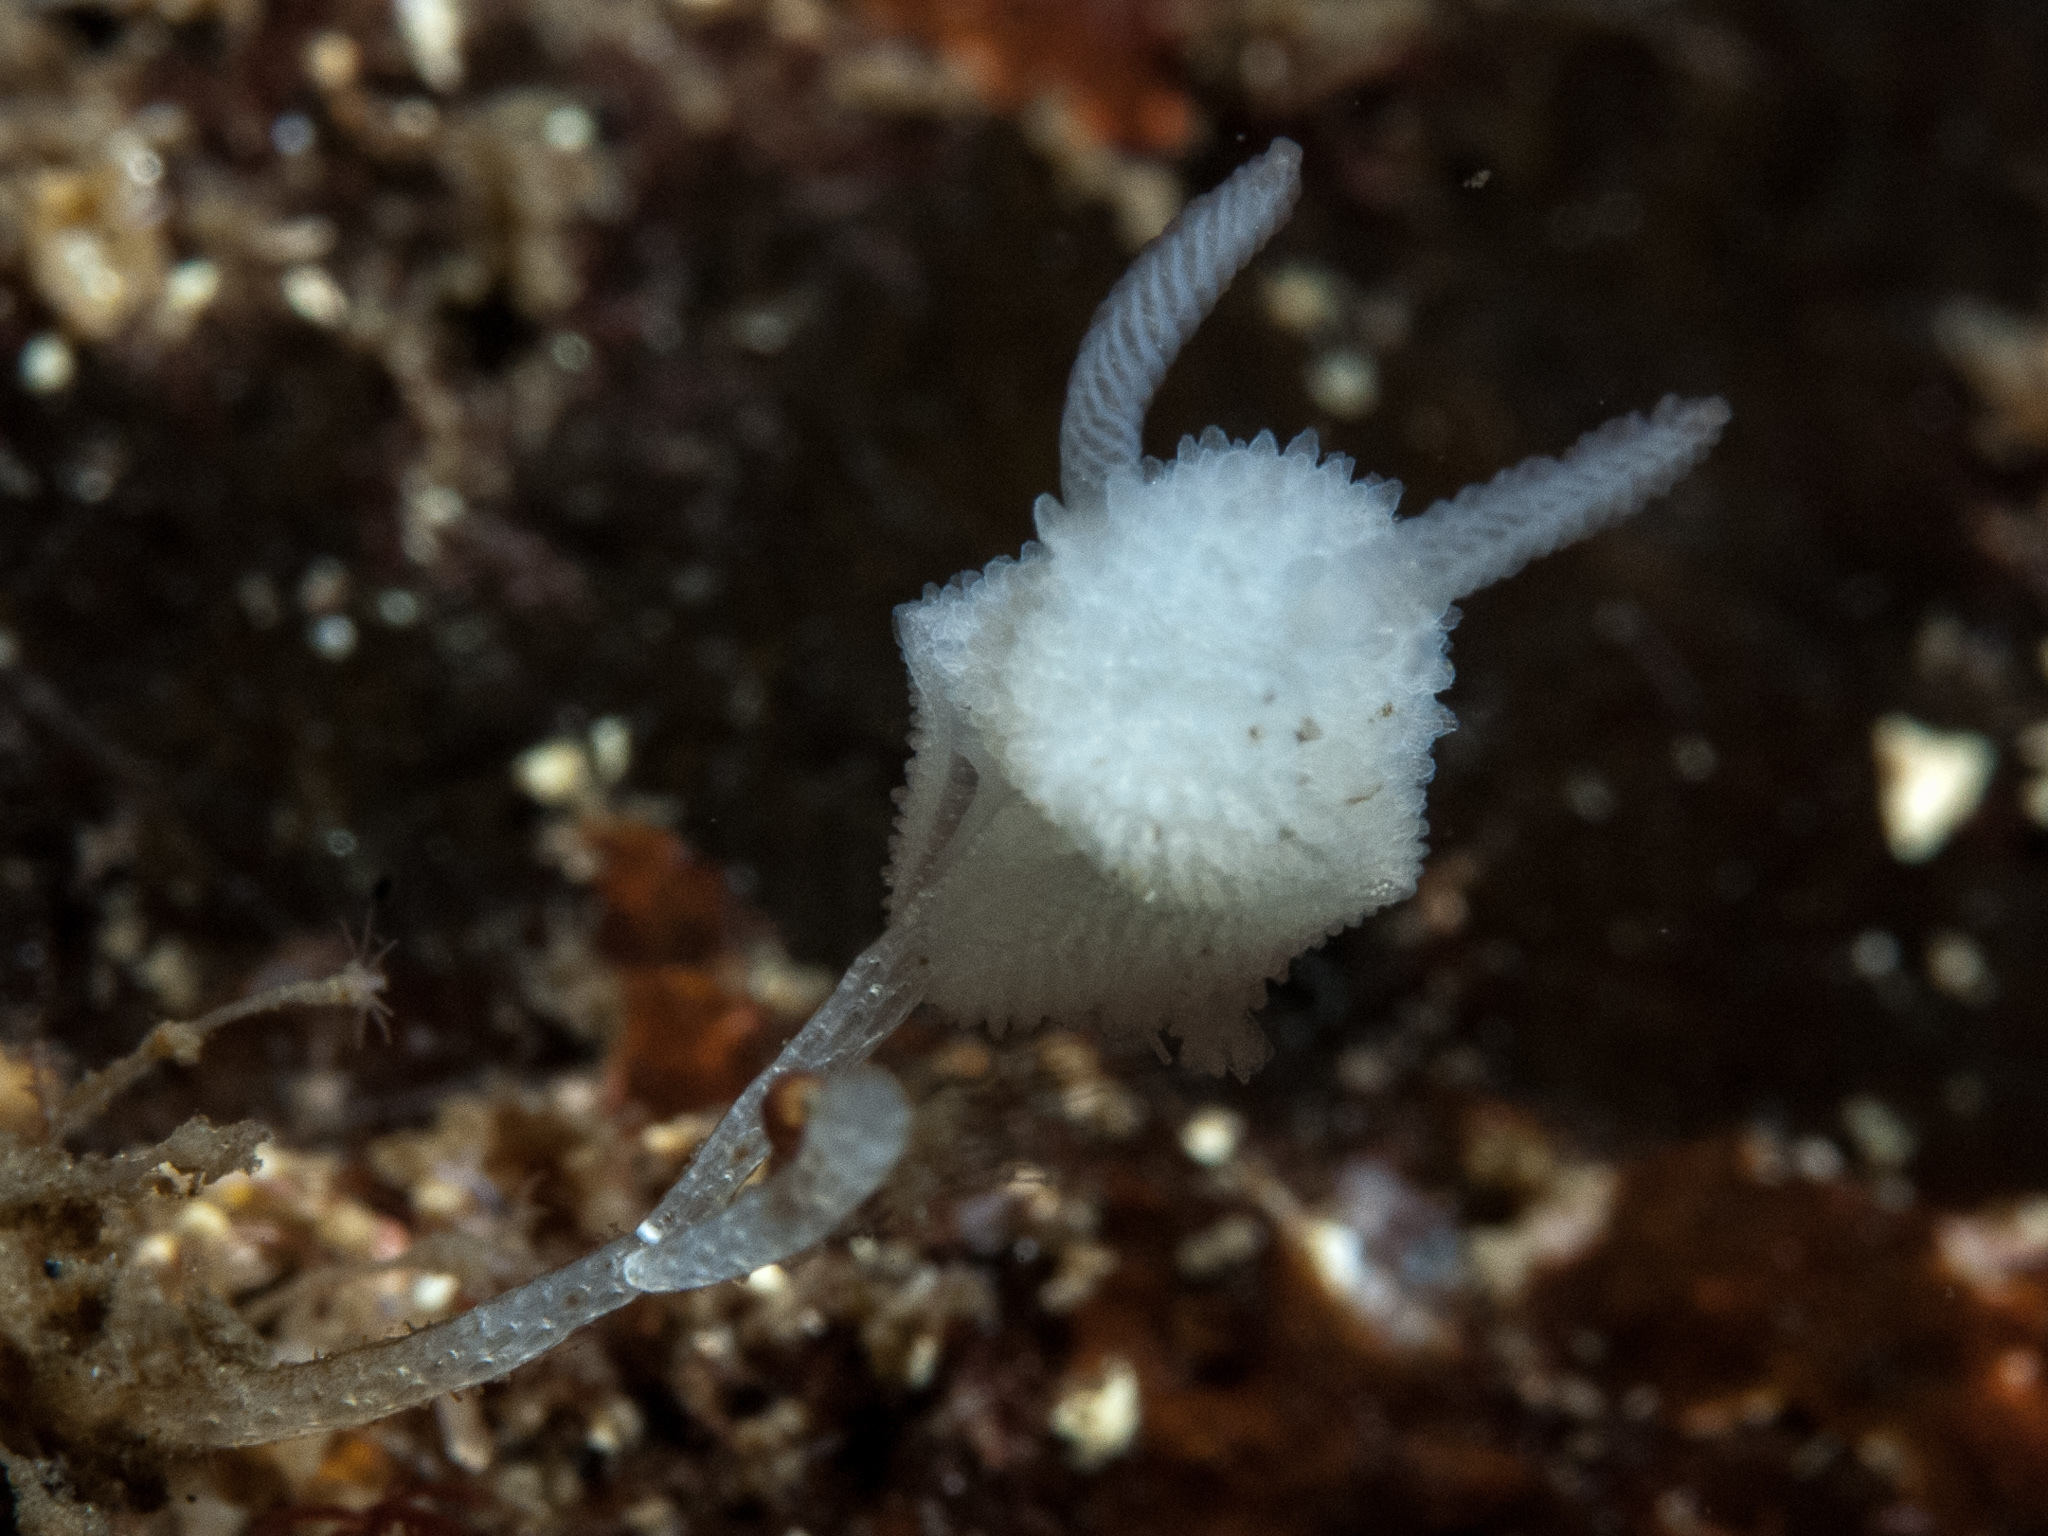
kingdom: Animalia
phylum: Mollusca
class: Gastropoda
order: Nudibranchia
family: Onchidorididae
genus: Atalodoris
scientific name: Atalodoris oblonga
